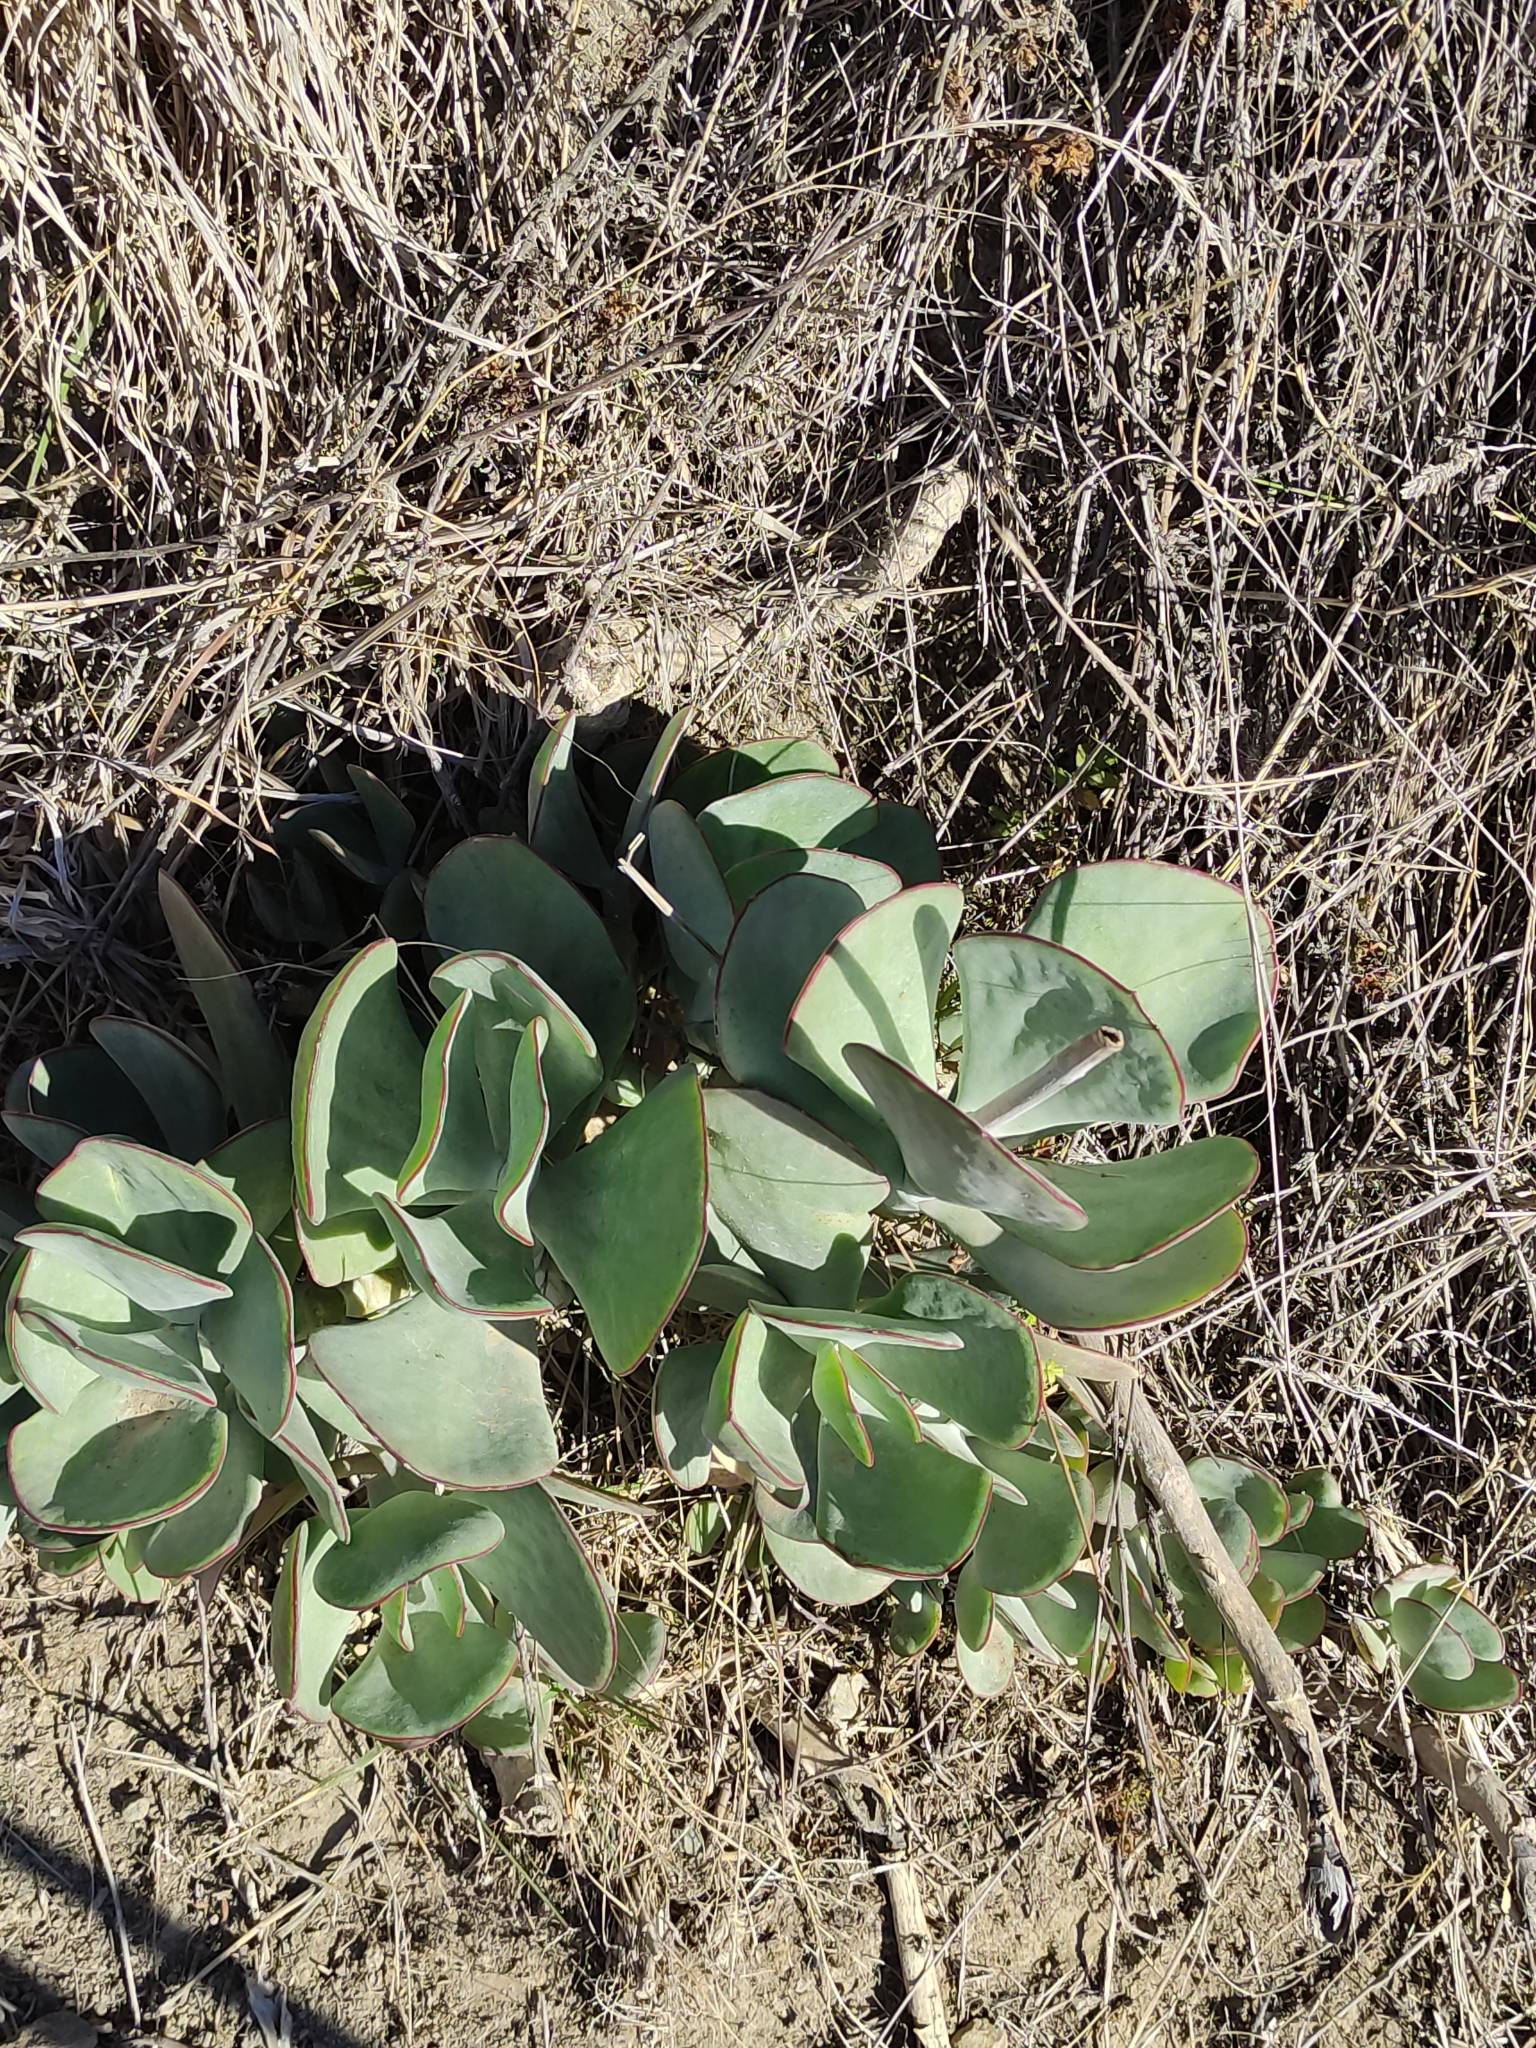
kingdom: Plantae
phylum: Tracheophyta
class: Magnoliopsida
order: Saxifragales
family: Crassulaceae
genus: Cotyledon
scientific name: Cotyledon orbiculata
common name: Pig's ear
